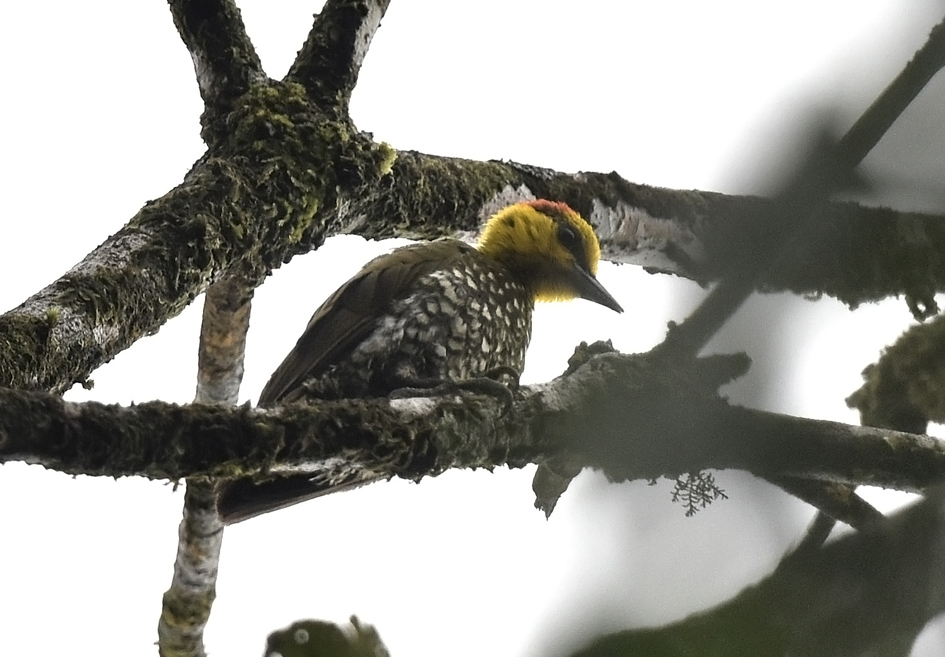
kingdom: Animalia
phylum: Chordata
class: Aves
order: Piciformes
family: Picidae
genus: Piculus
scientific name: Piculus flavigula
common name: Yellow-throated woodpecker
